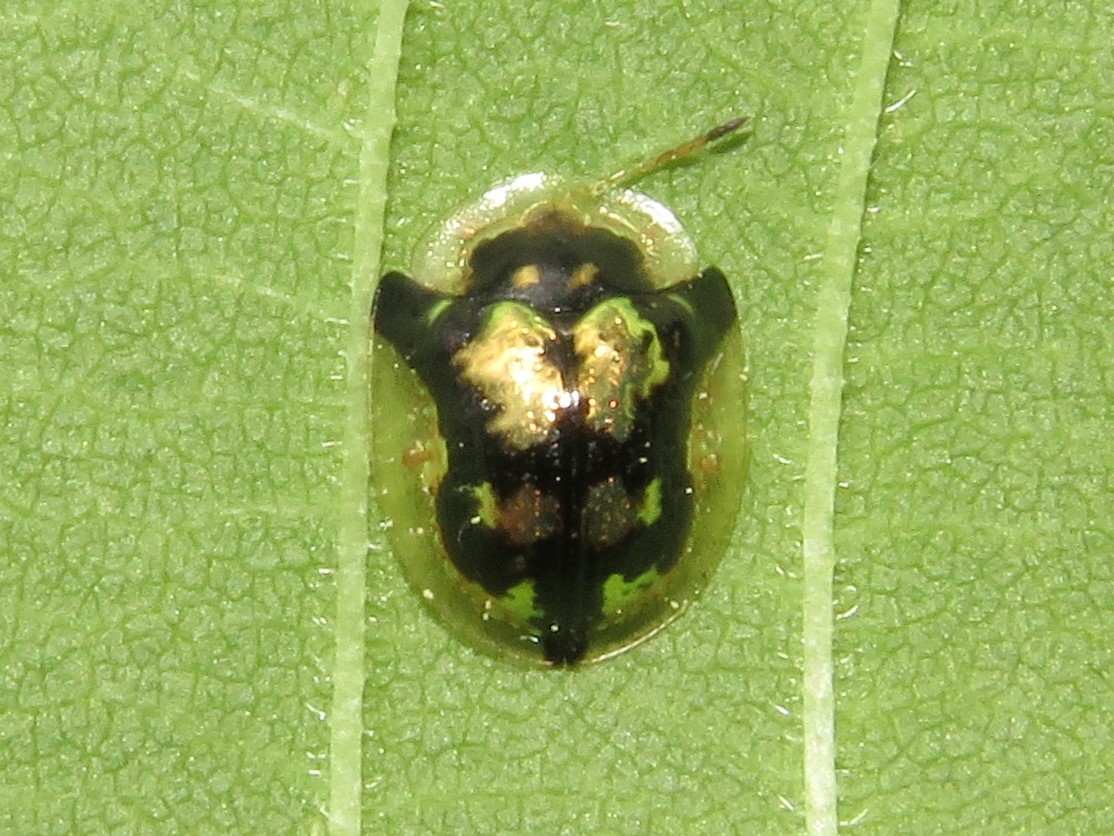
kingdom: Animalia
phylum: Arthropoda
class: Insecta
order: Coleoptera
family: Chrysomelidae
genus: Deloyala
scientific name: Deloyala guttata
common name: Mottled tortoise beetle
